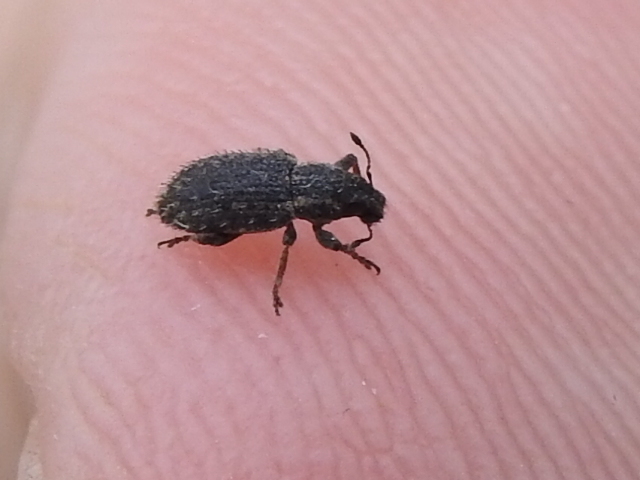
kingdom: Animalia
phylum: Arthropoda
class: Insecta
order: Coleoptera
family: Curculionidae
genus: Sitona
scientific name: Sitona hispidulus
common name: Clover weevil
